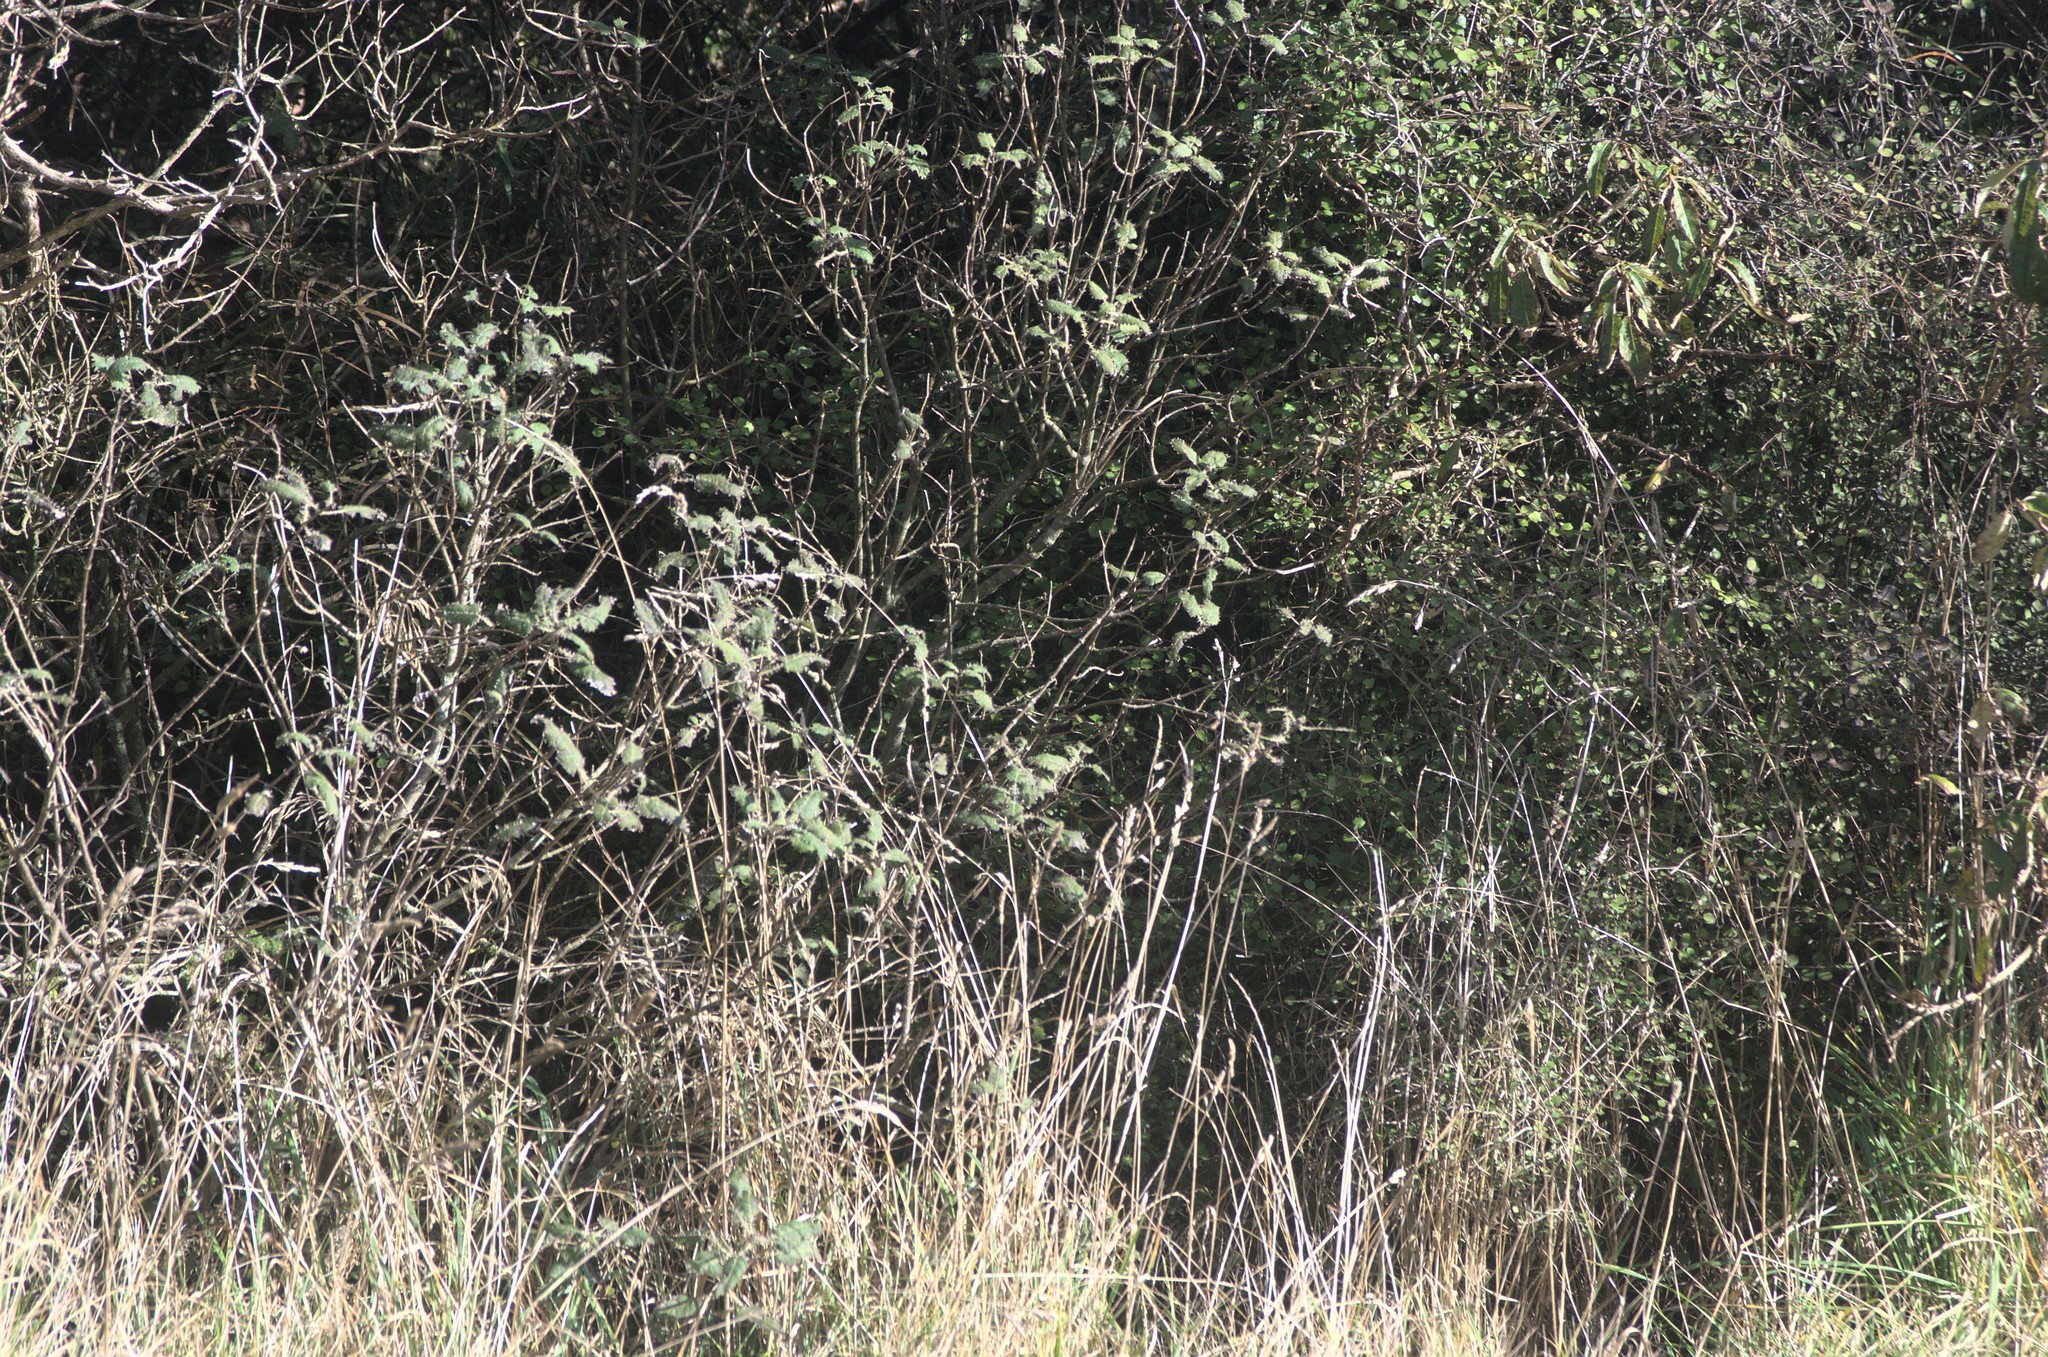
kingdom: Plantae
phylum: Tracheophyta
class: Magnoliopsida
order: Rosales
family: Urticaceae
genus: Urtica
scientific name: Urtica ferox
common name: Tree nettle
